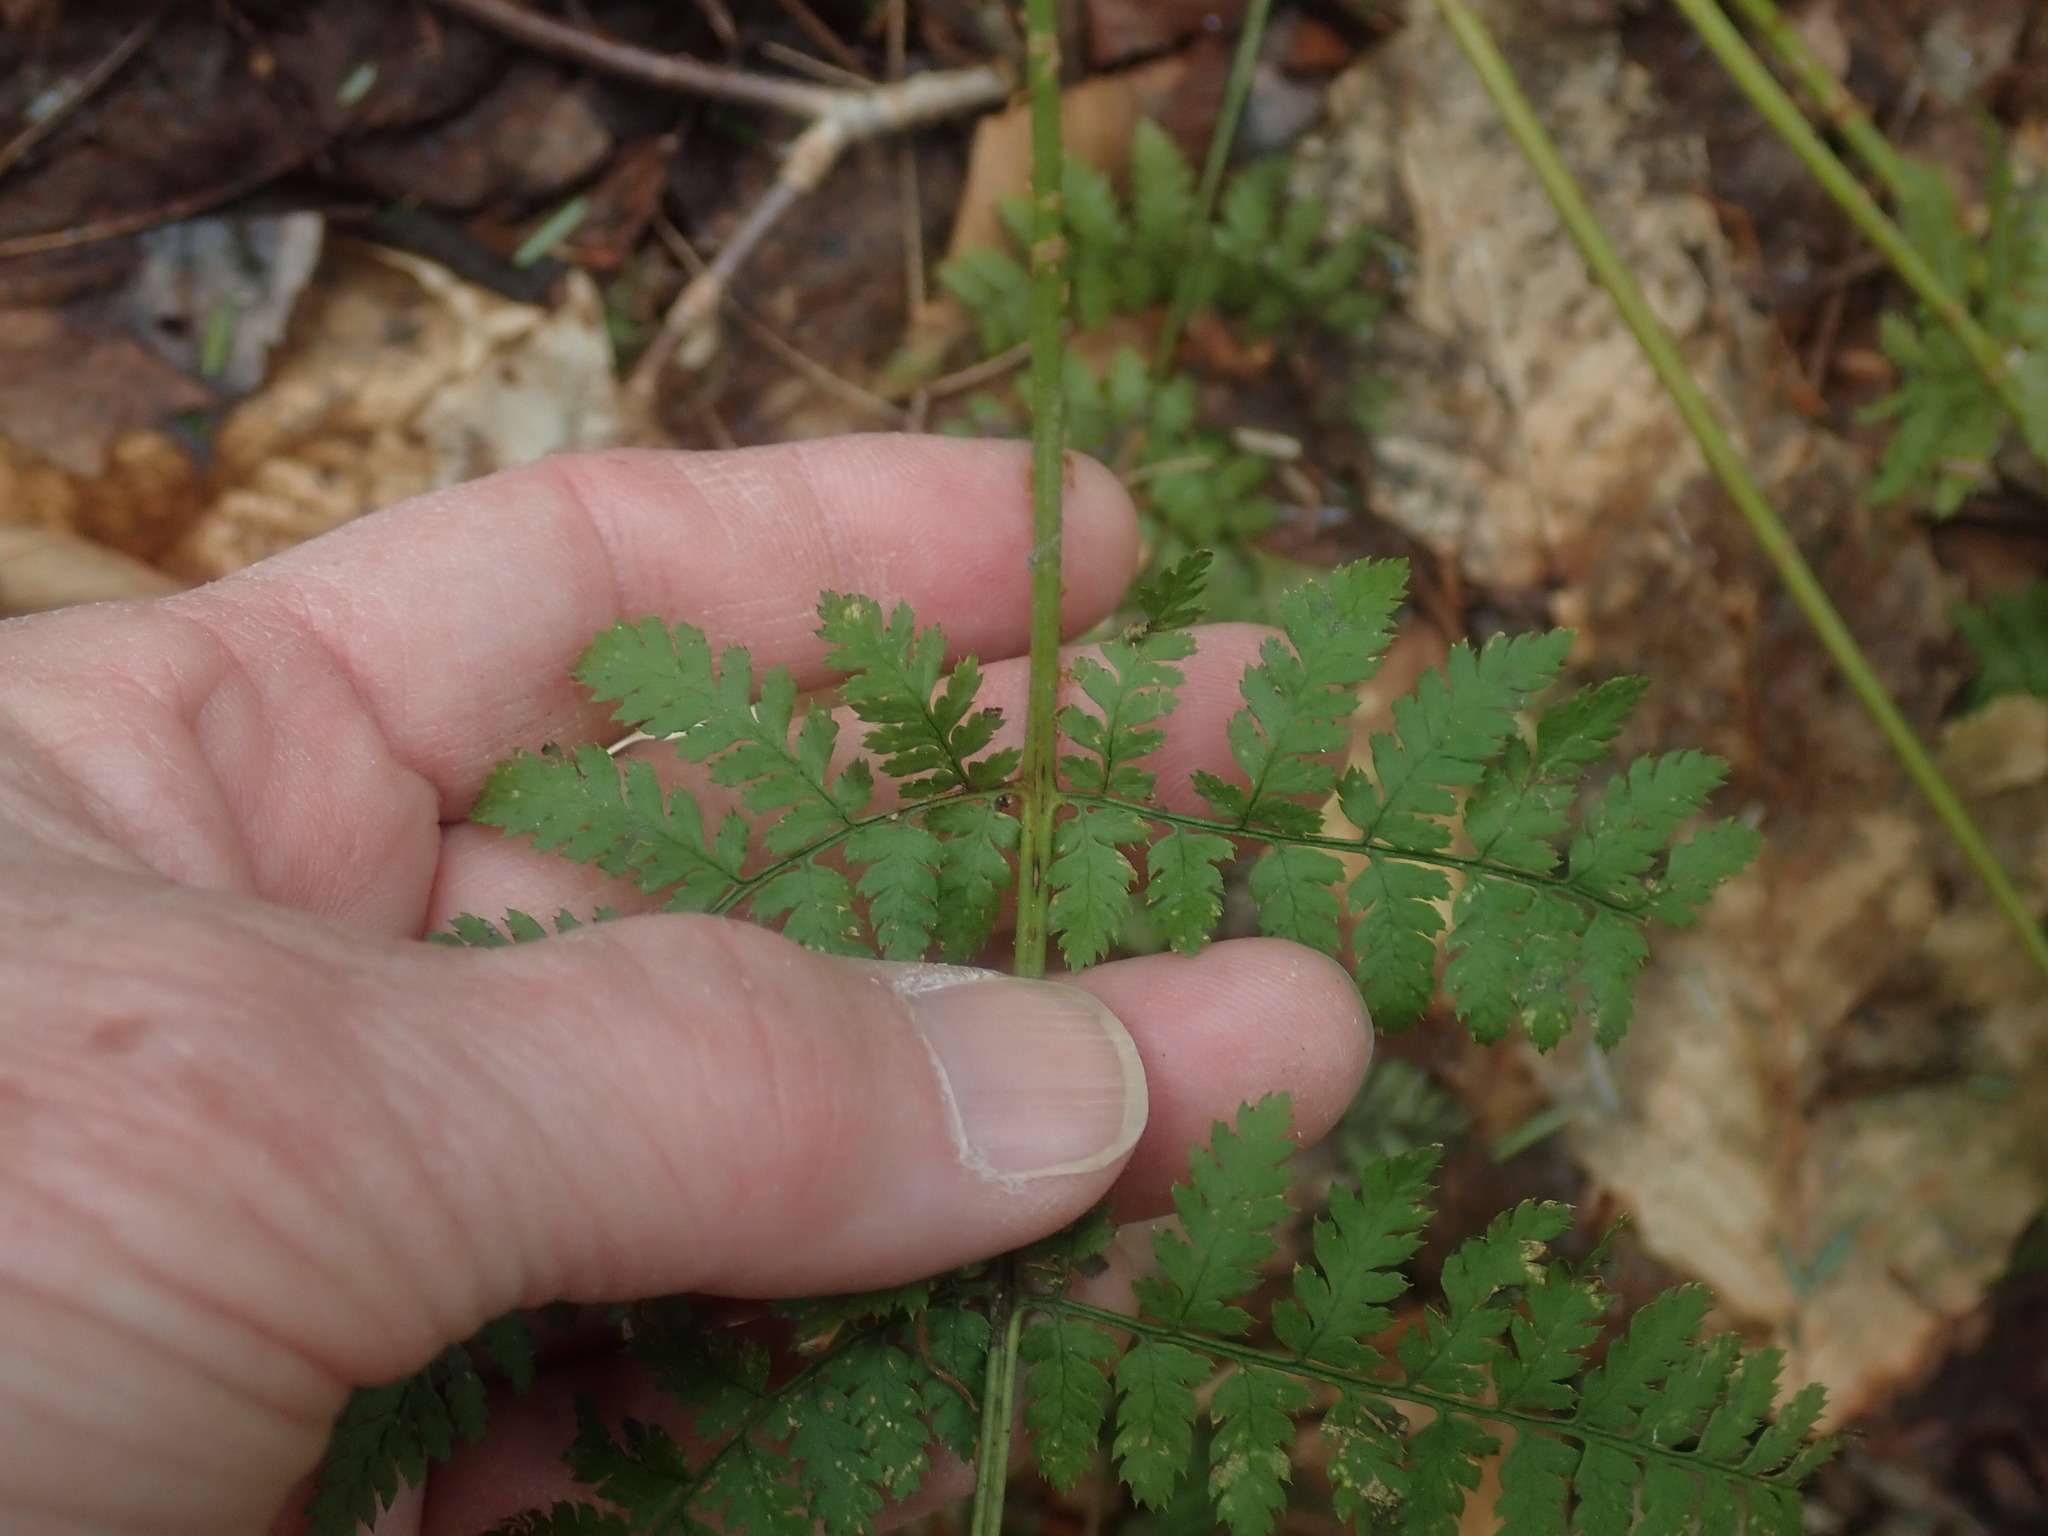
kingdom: Plantae
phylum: Tracheophyta
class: Polypodiopsida
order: Polypodiales
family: Dryopteridaceae
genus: Dryopteris
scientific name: Dryopteris intermedia
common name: Evergreen wood fern
